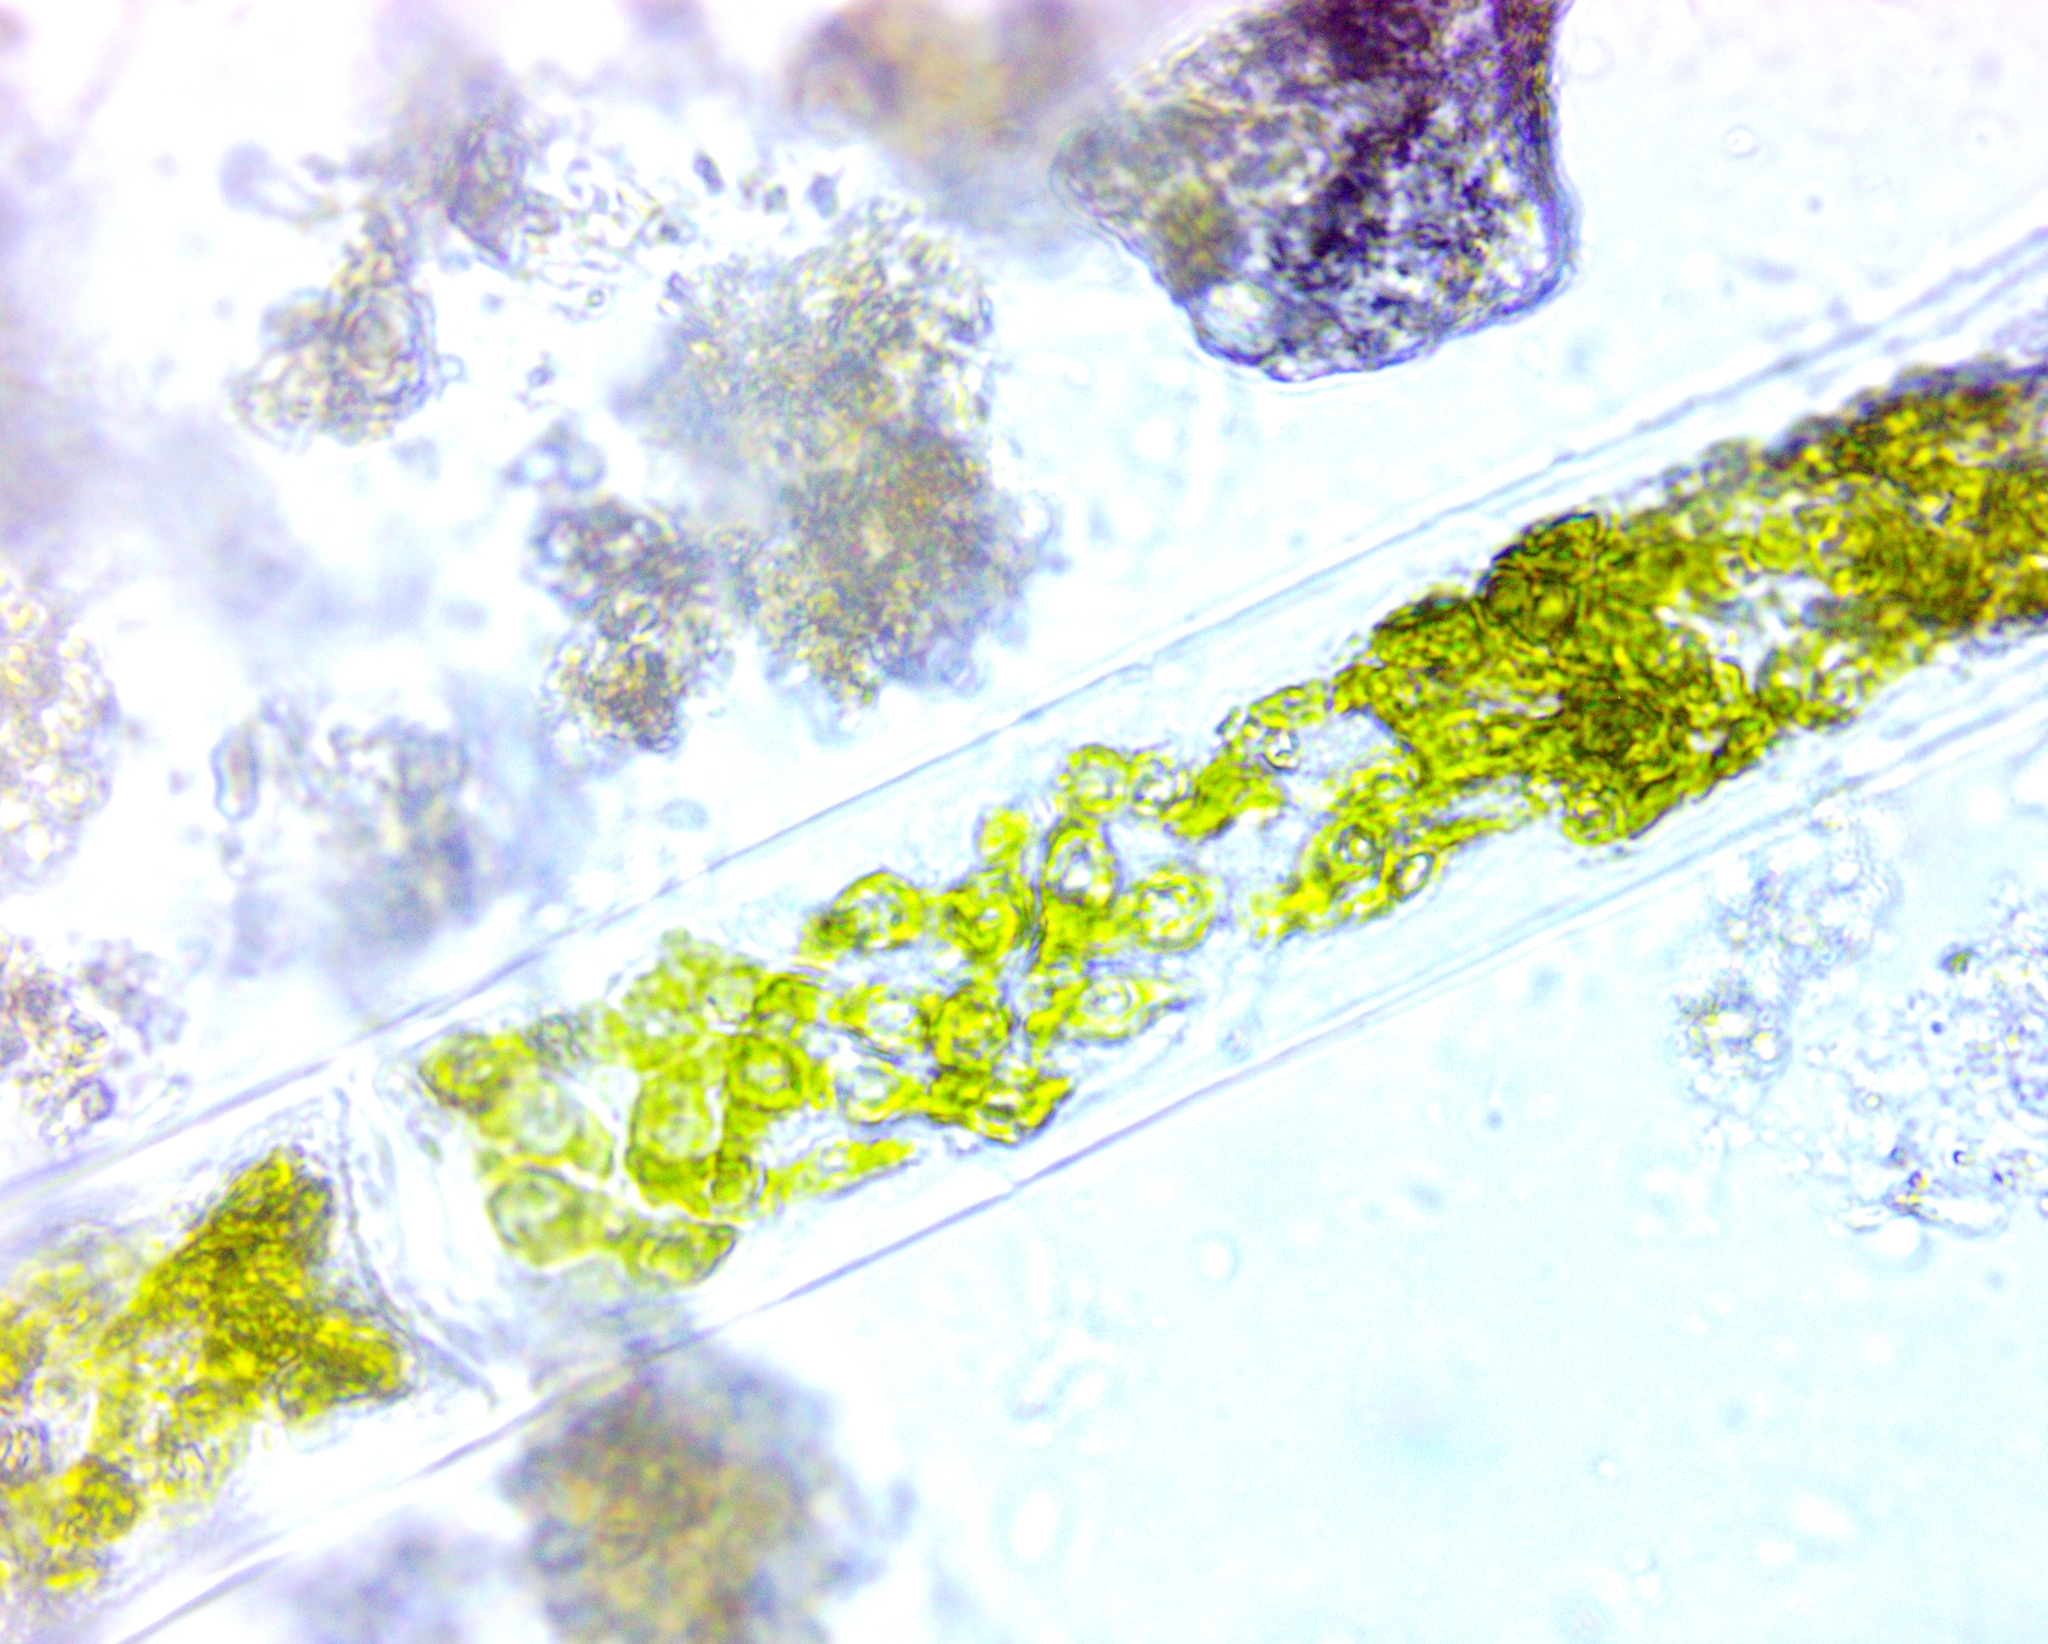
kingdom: Plantae
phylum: Charophyta
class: Zygnematophyceae
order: Zygnematales
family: Zygnemataceae
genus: Spirogyra
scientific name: Spirogyra
